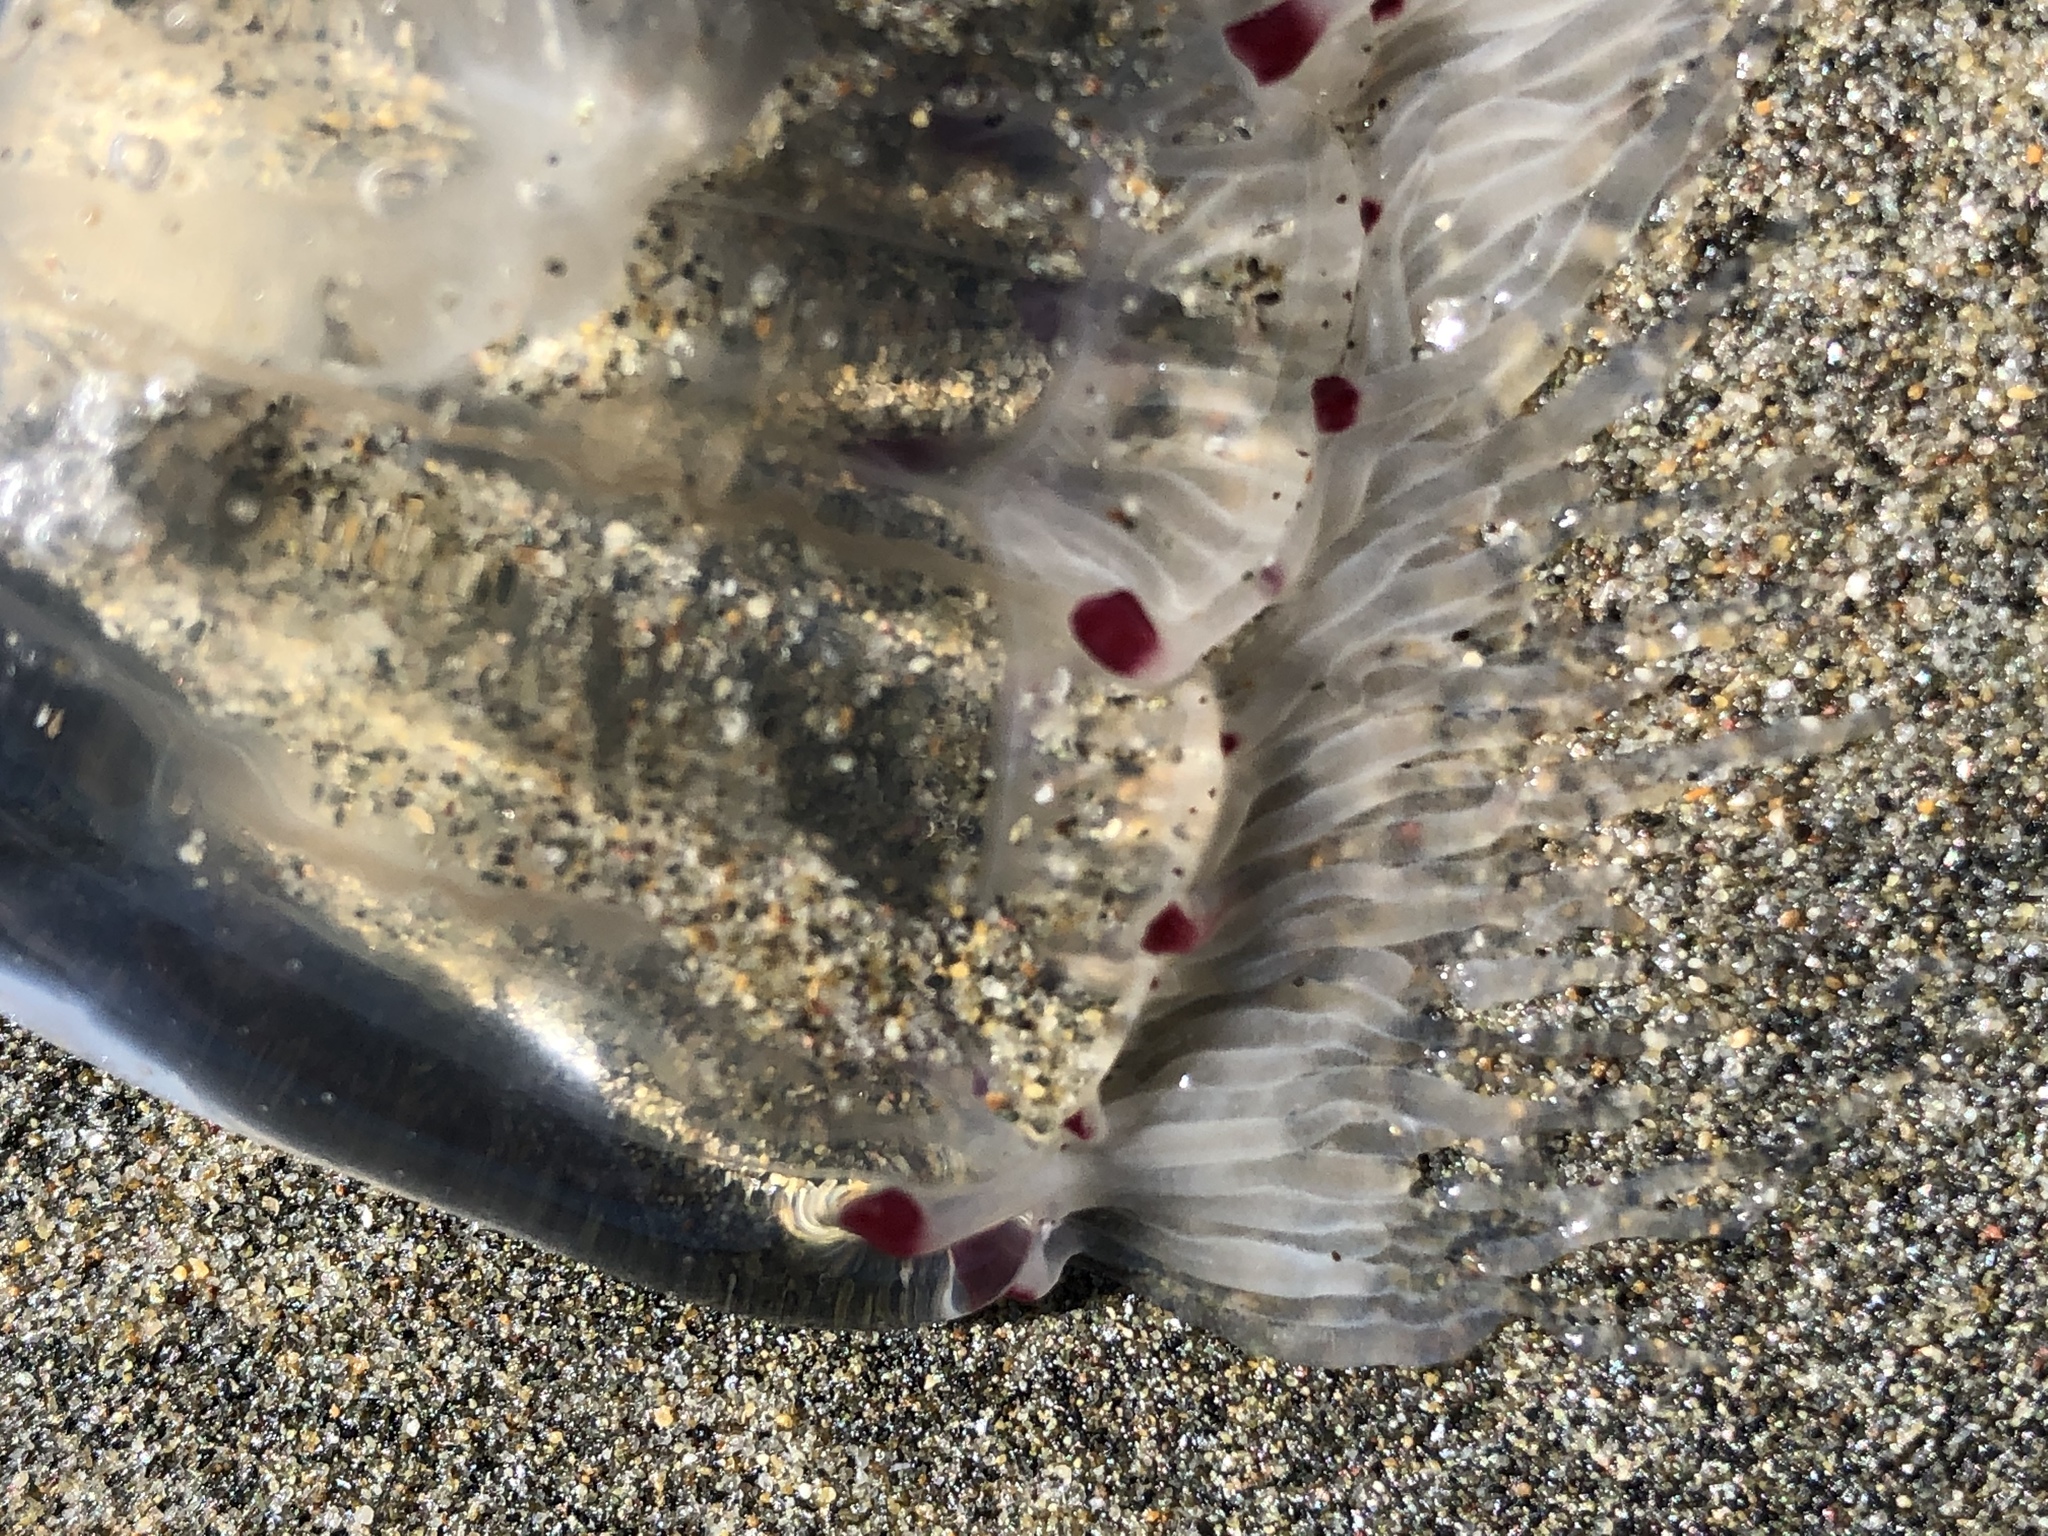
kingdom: Animalia
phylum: Cnidaria
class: Hydrozoa
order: Anthoathecata
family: Corynidae
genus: Scrippsia
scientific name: Scrippsia pacifica
